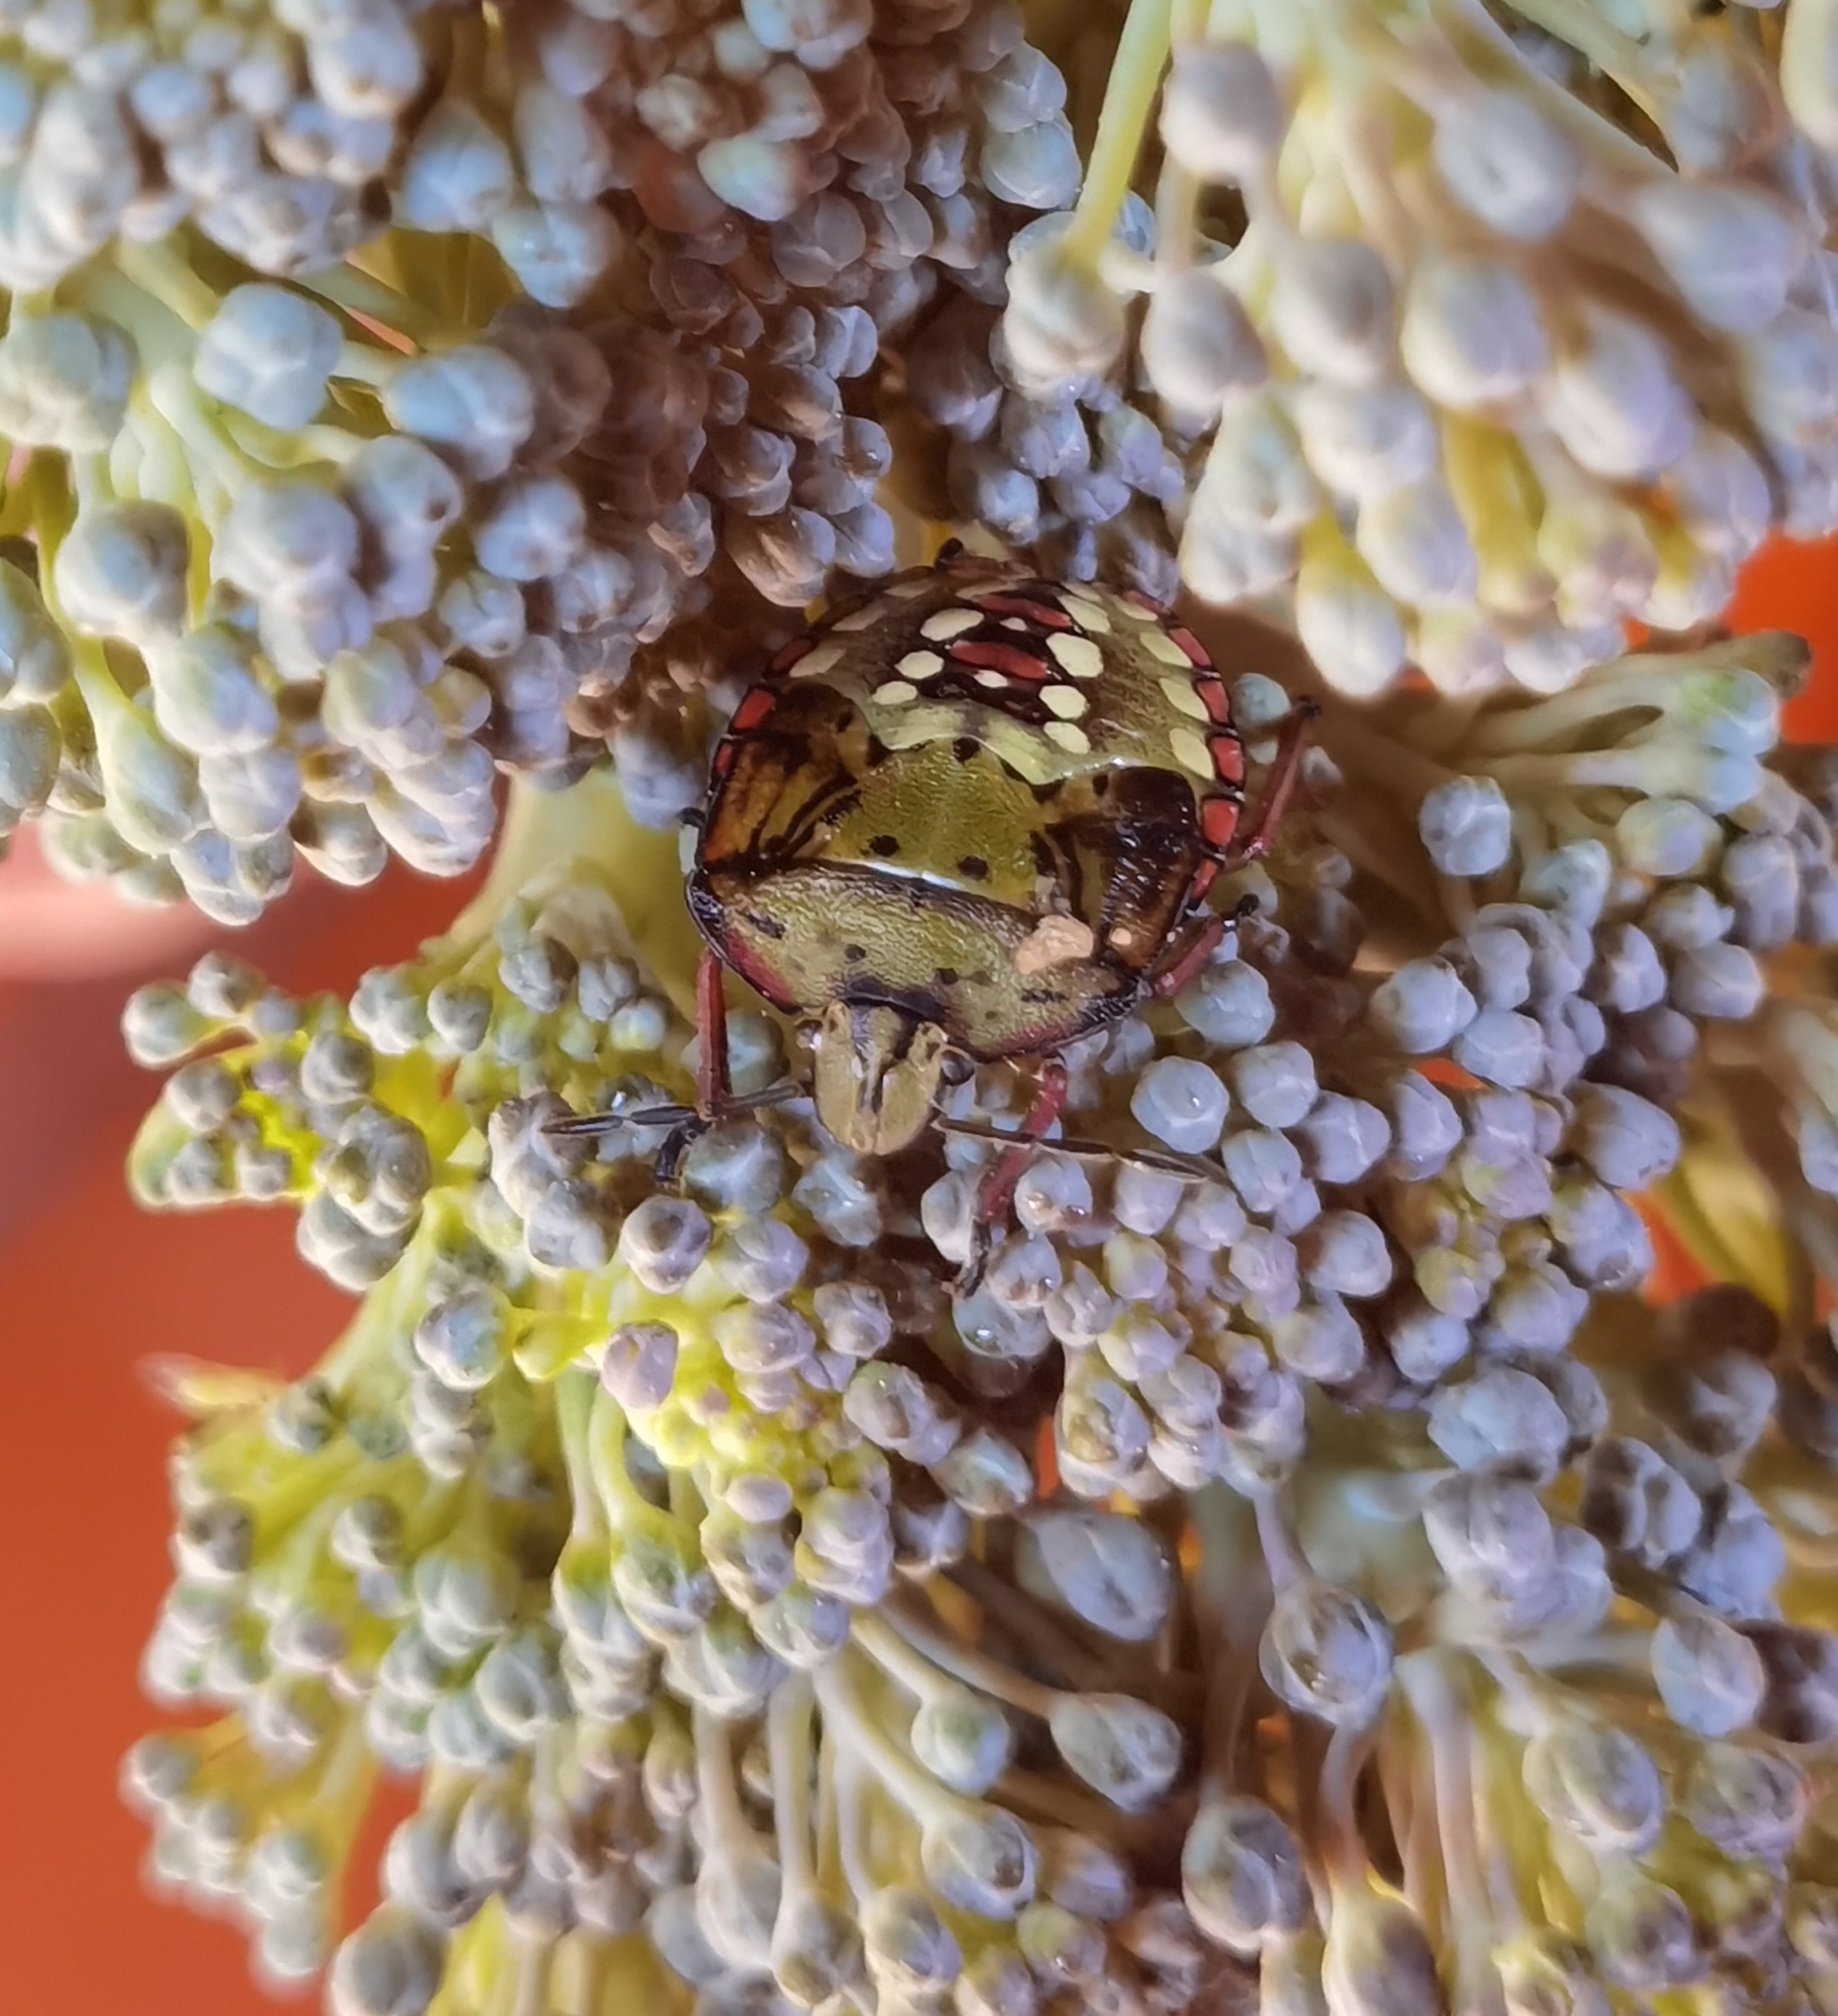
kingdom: Animalia
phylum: Arthropoda
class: Insecta
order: Hemiptera
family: Pentatomidae
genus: Nezara
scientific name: Nezara viridula
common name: Southern green stink bug
